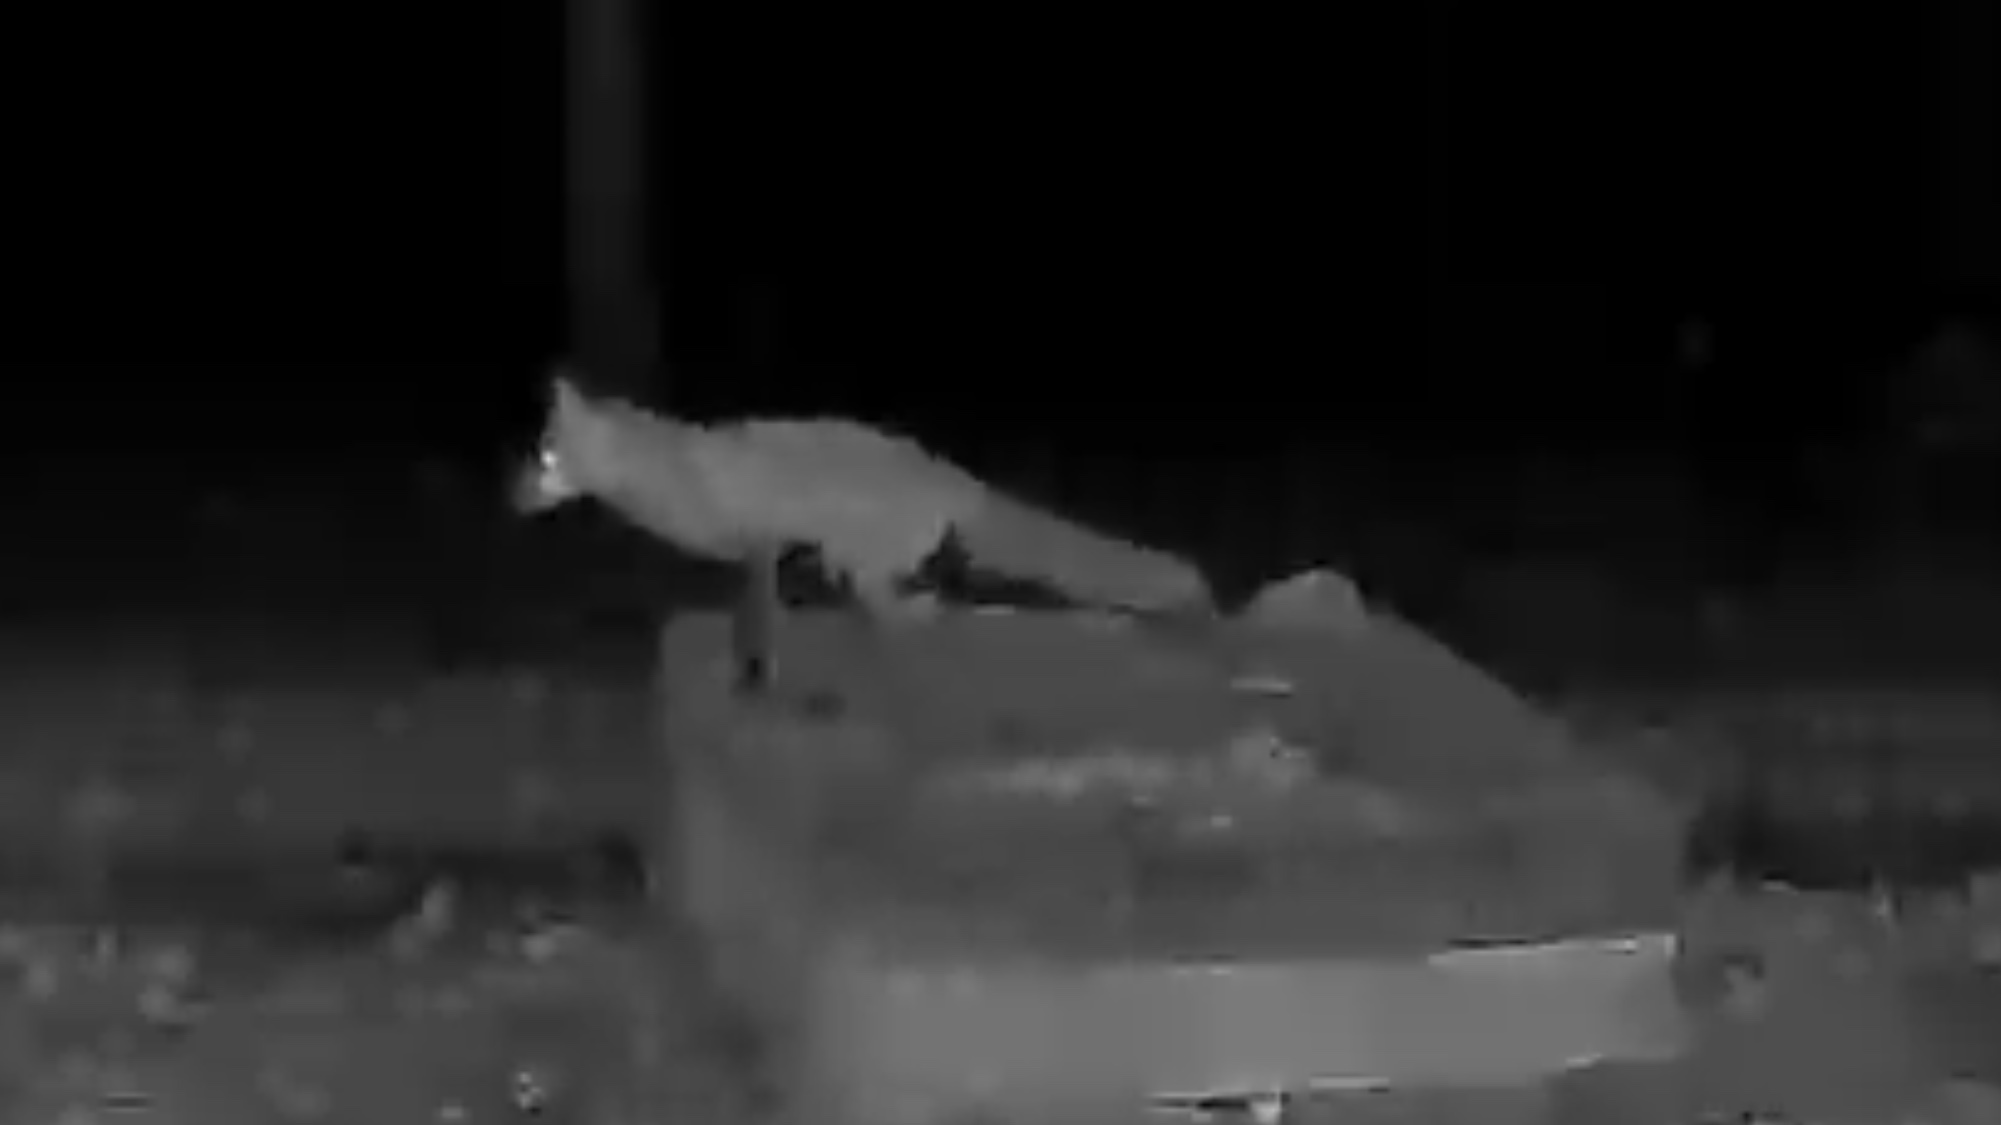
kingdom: Animalia
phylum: Chordata
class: Mammalia
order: Carnivora
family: Canidae
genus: Vulpes
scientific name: Vulpes vulpes
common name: Red fox
